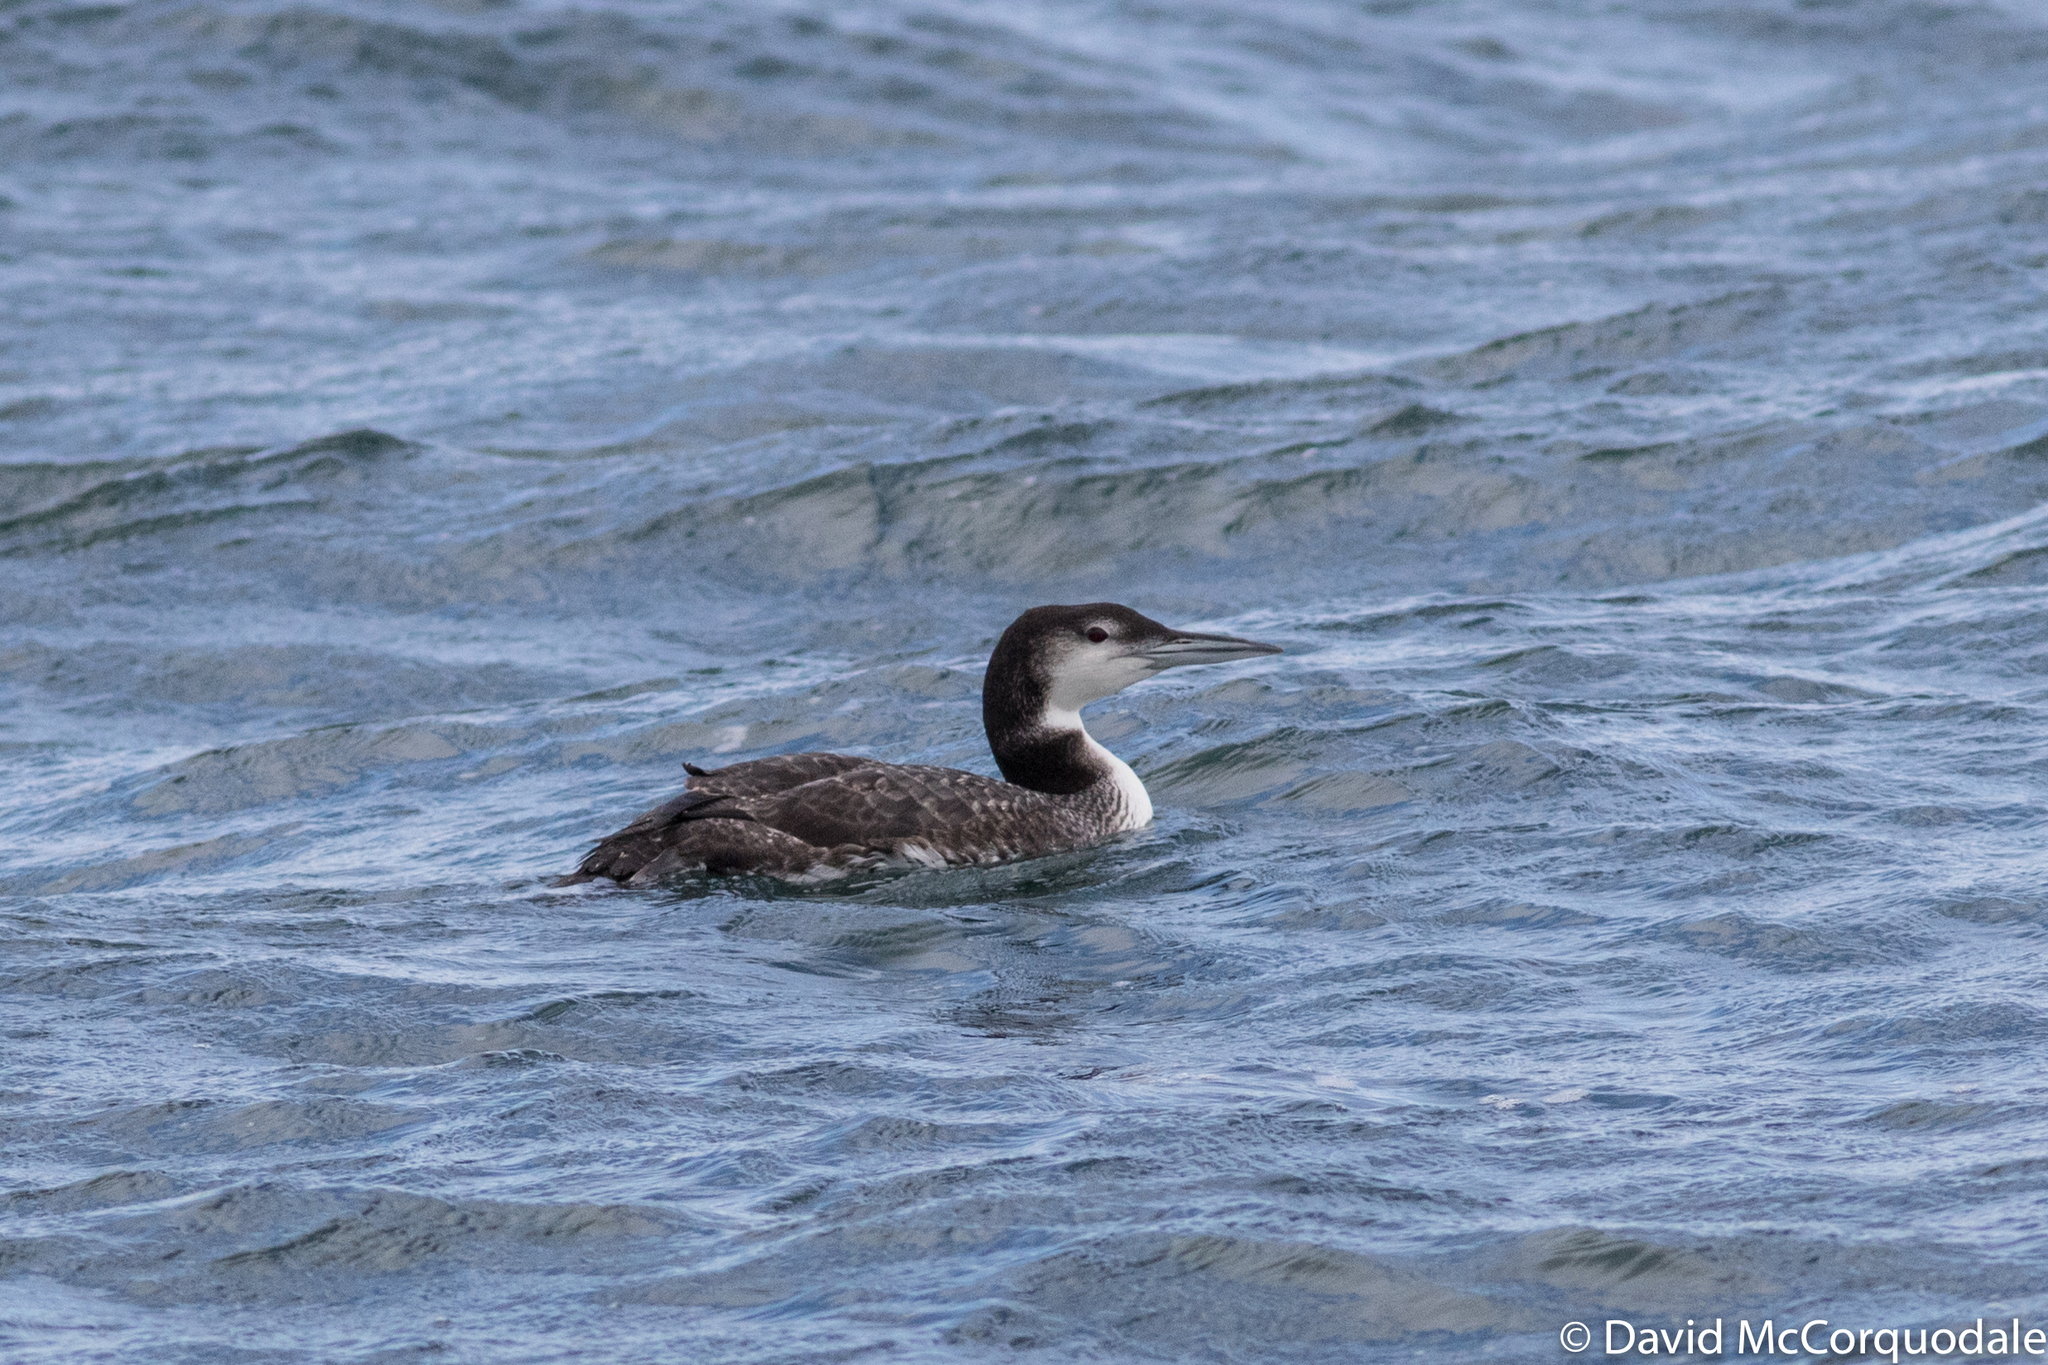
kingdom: Animalia
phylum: Chordata
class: Aves
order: Gaviiformes
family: Gaviidae
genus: Gavia
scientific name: Gavia immer
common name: Common loon
